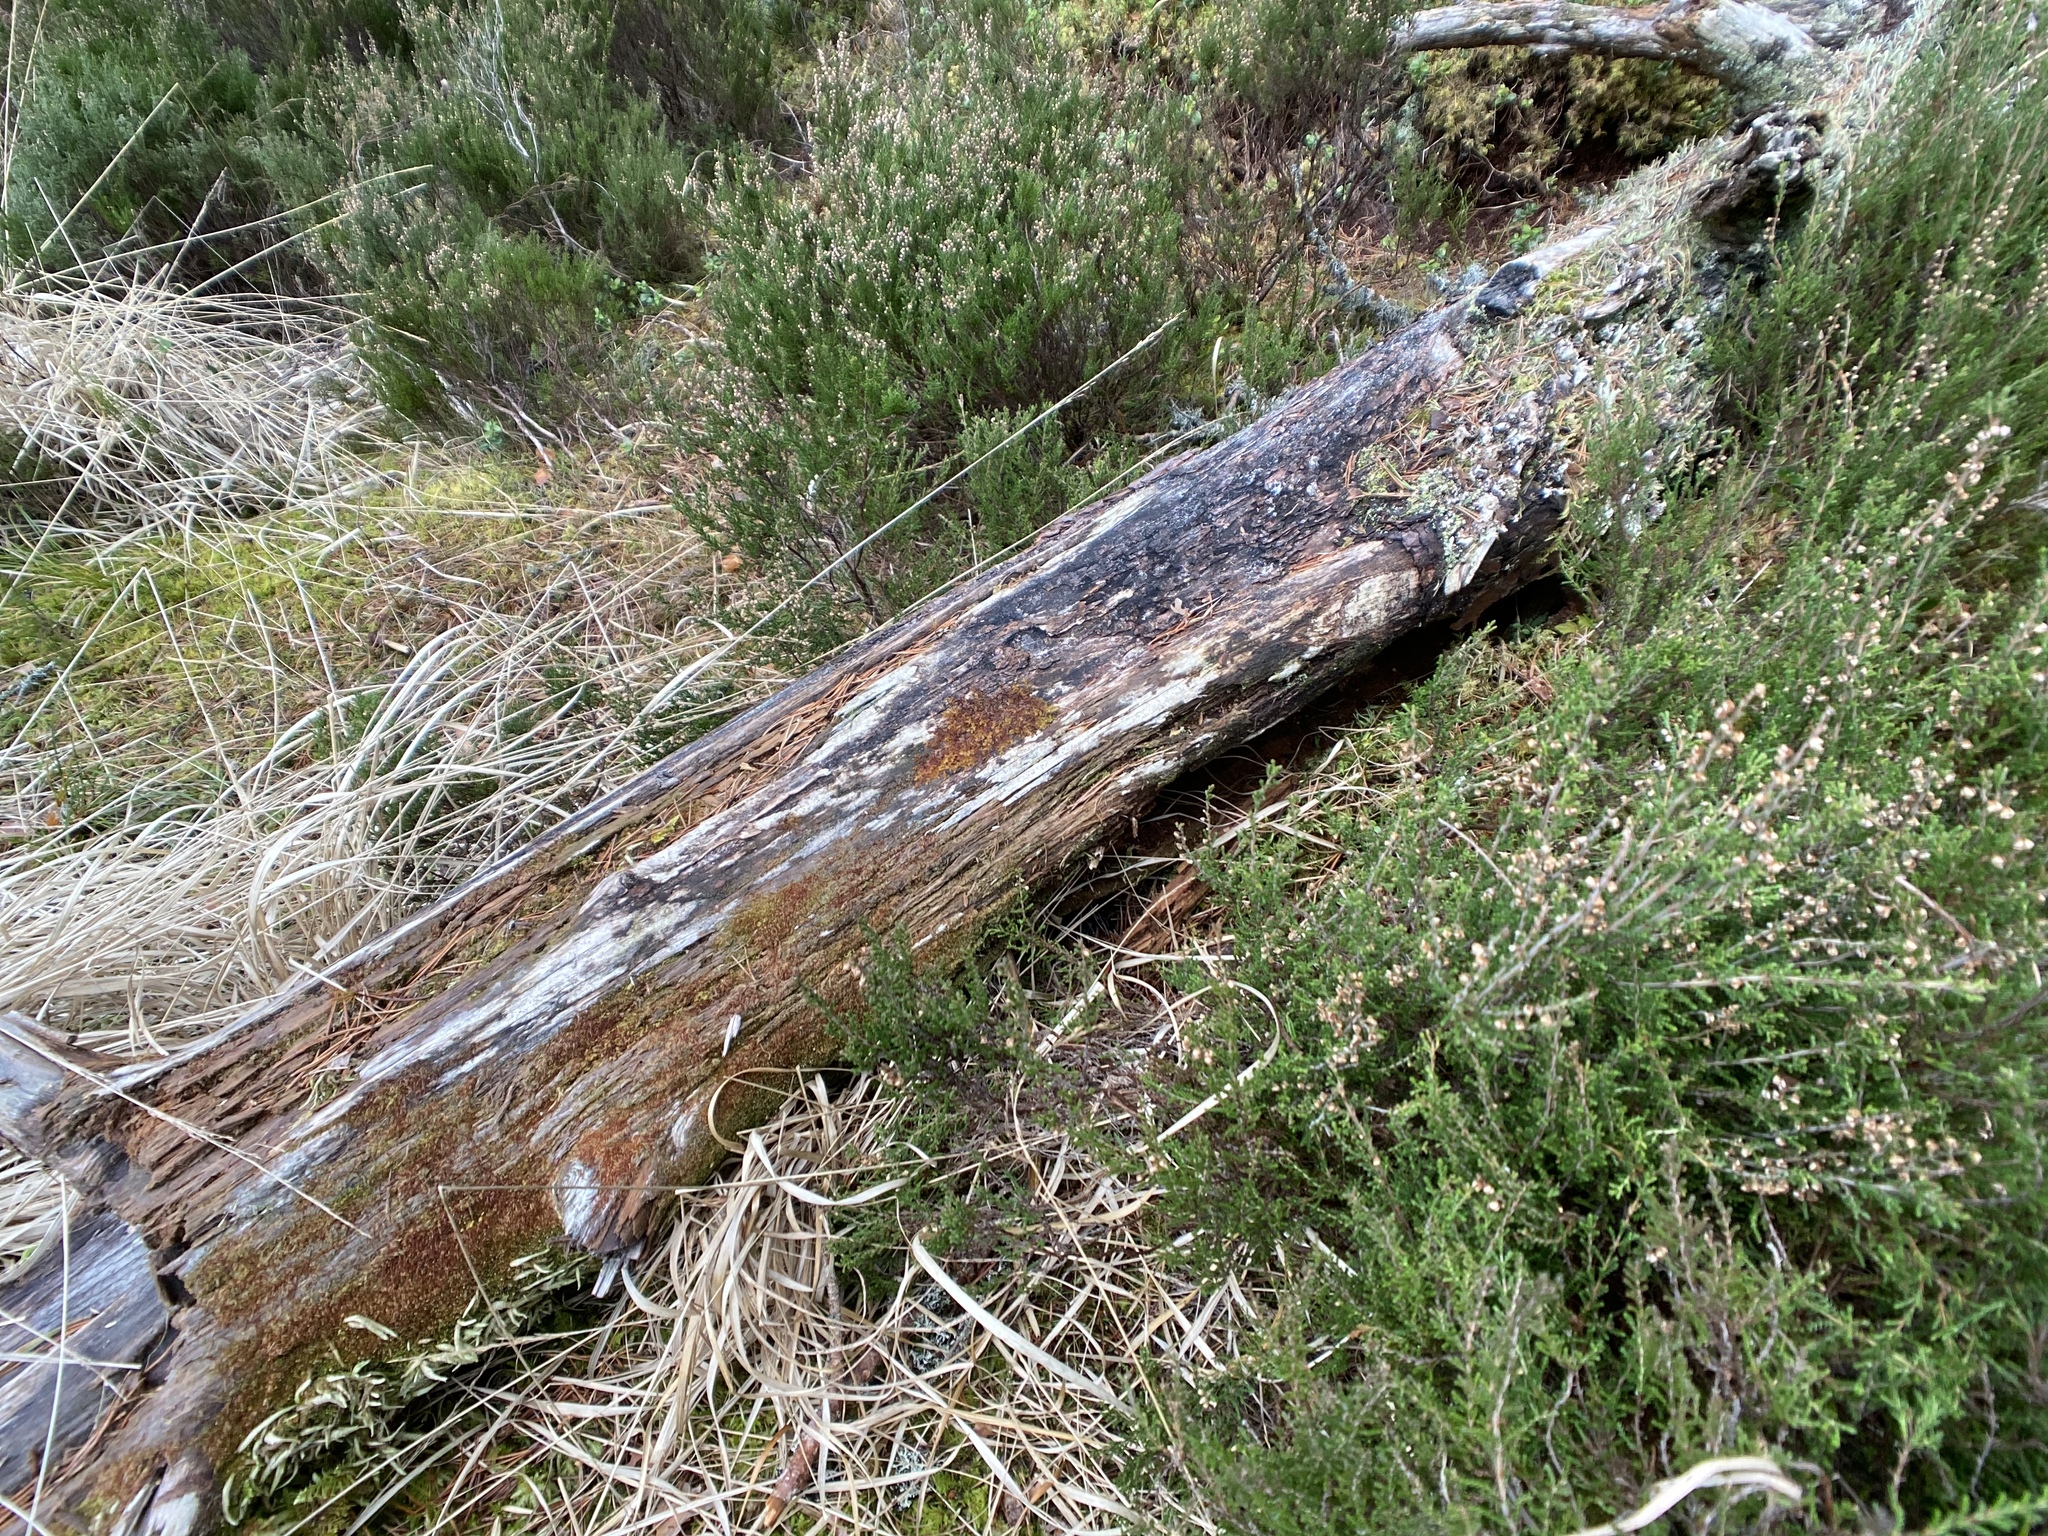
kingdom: Plantae
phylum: Marchantiophyta
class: Jungermanniopsida
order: Ptilidiales
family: Ptilidiaceae
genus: Ptilidium
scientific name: Ptilidium pulcherrimum
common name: Tree fringewort
